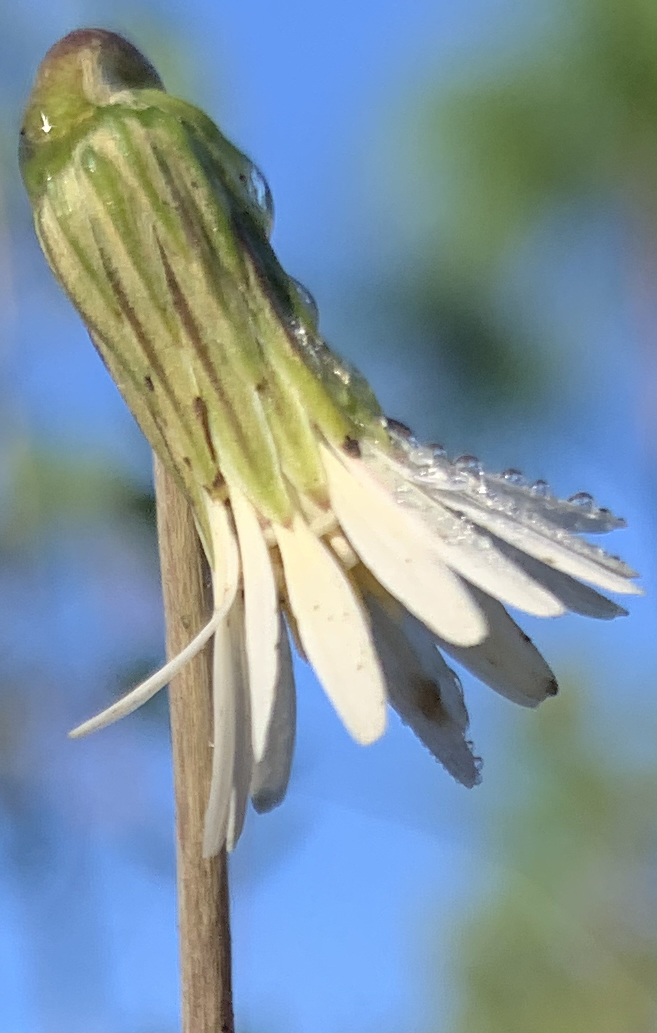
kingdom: Plantae
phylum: Tracheophyta
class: Magnoliopsida
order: Asterales
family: Asteraceae
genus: Chaptalia
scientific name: Chaptalia tomentosa
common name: Woolly sunbonnet
